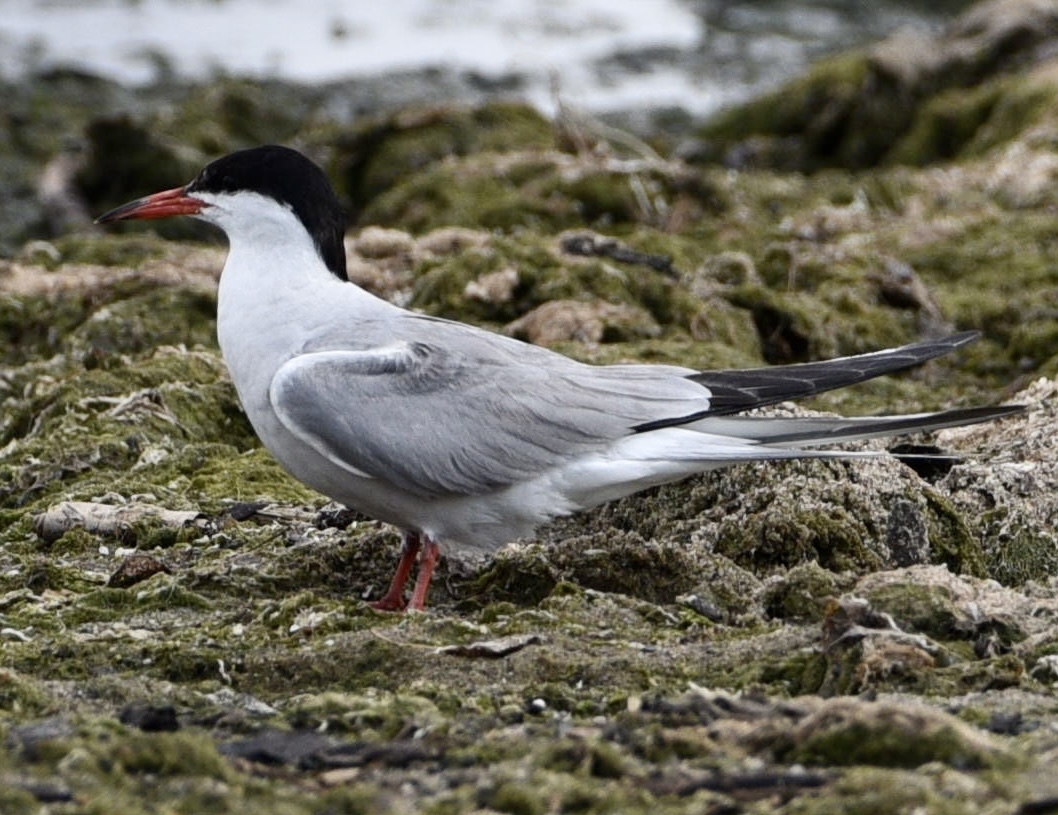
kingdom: Animalia
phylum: Chordata
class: Aves
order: Charadriiformes
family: Laridae
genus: Sterna
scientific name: Sterna hirundo
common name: Common tern
